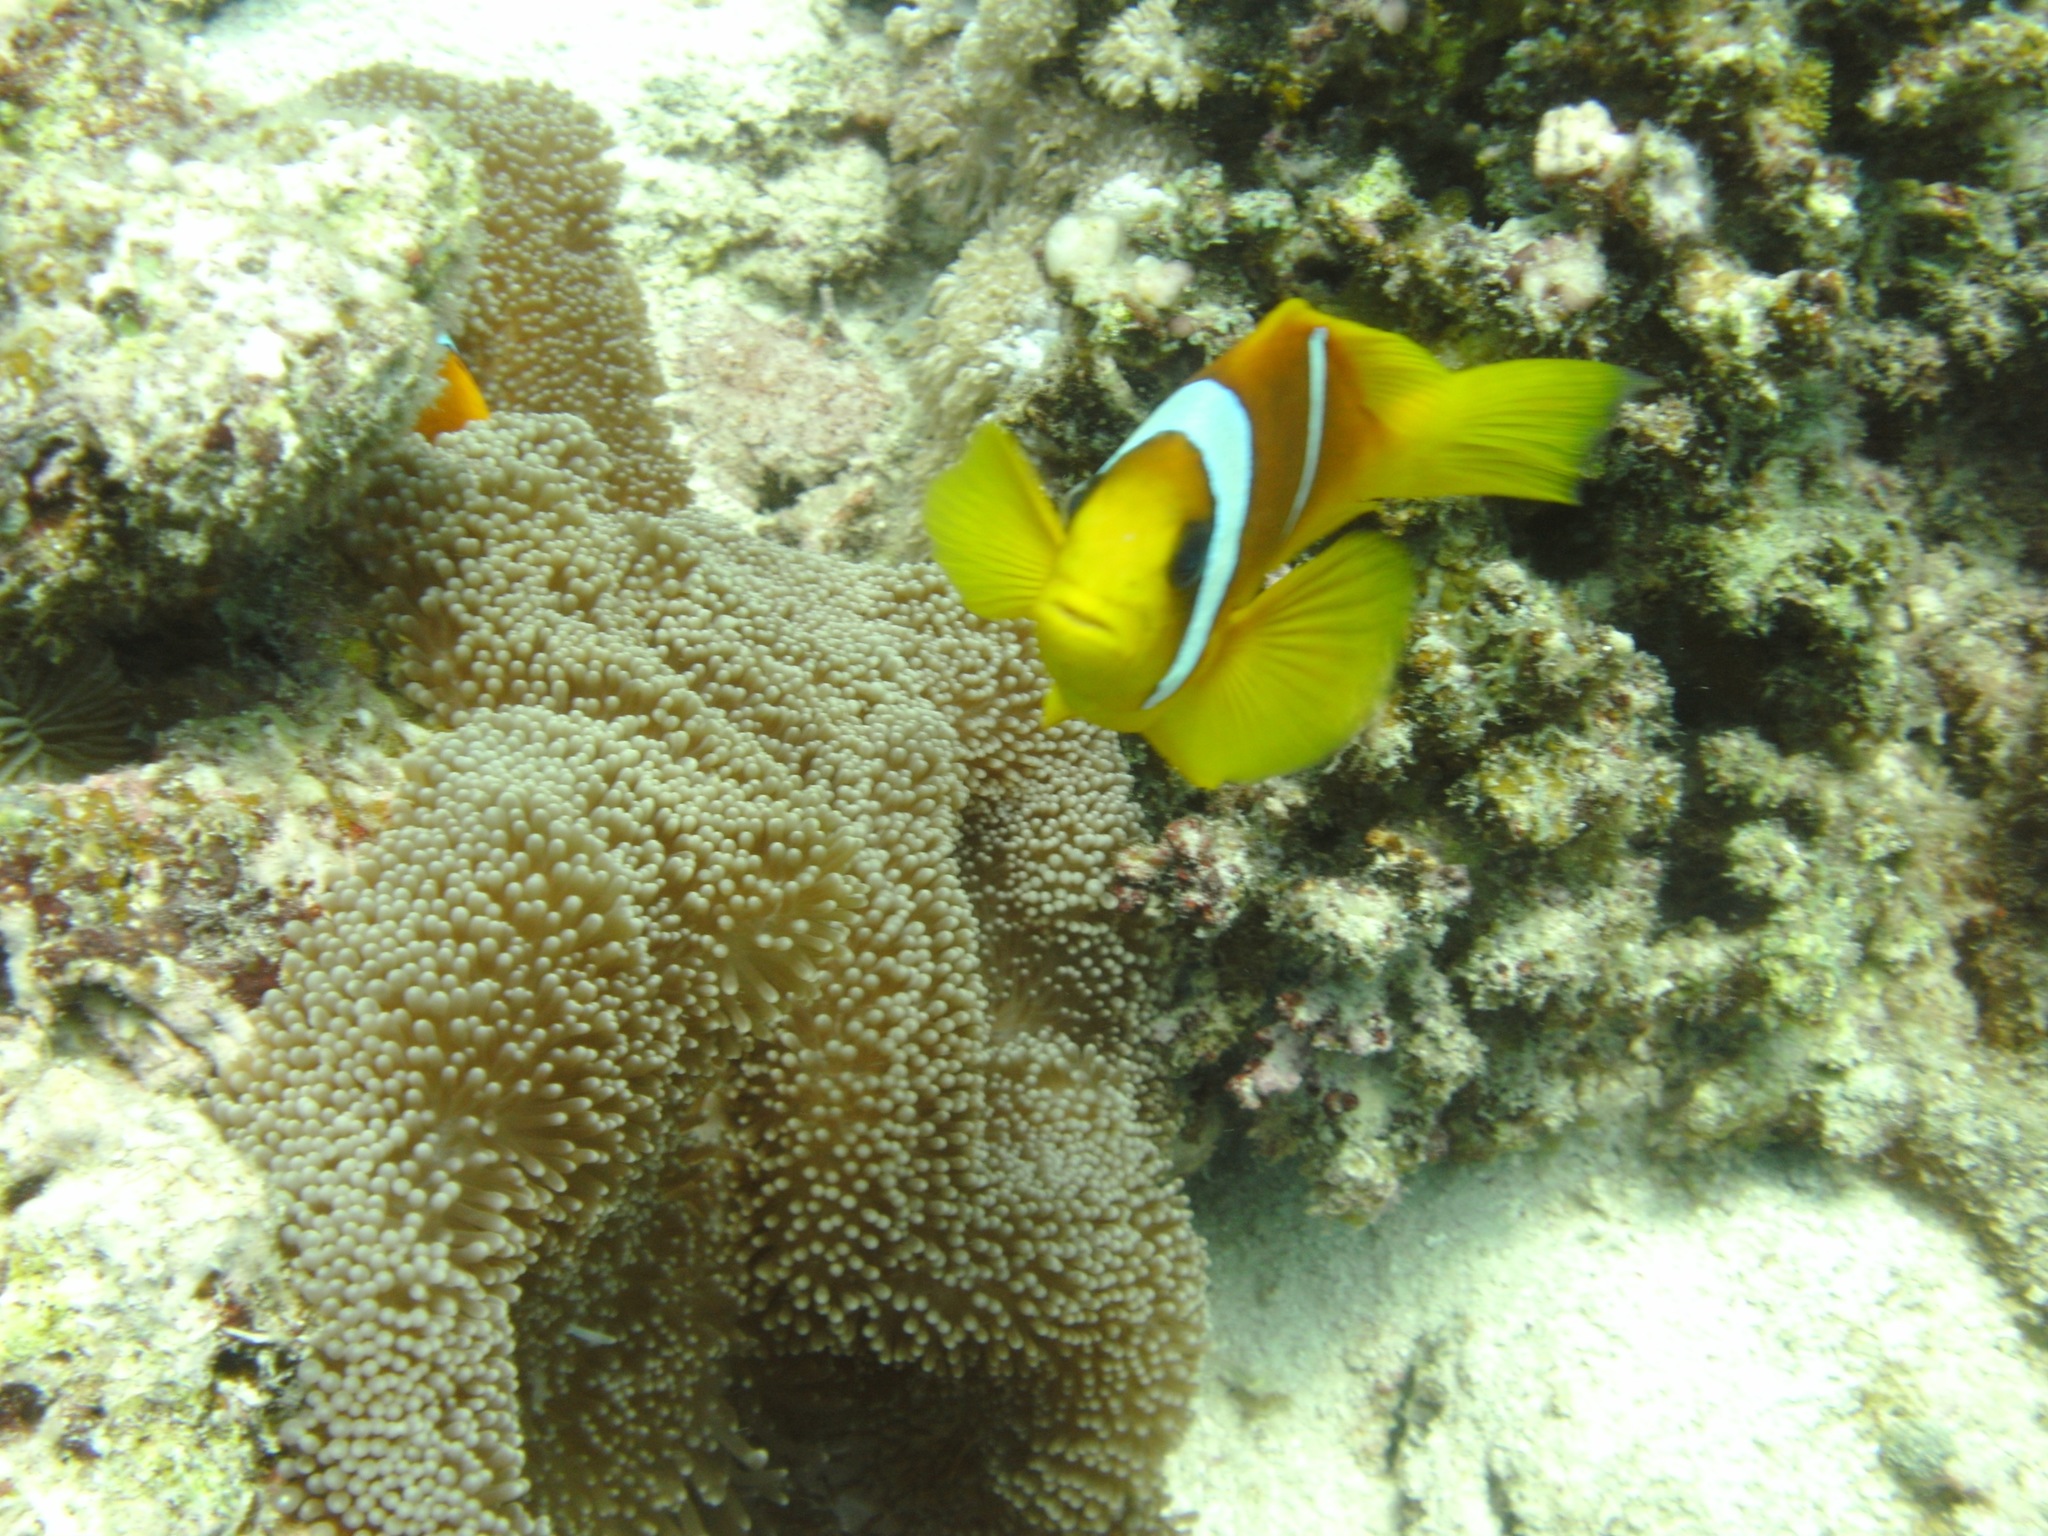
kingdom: Animalia
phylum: Chordata
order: Perciformes
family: Pomacentridae
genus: Amphiprion
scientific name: Amphiprion bicinctus
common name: Two-banded anemonefish
